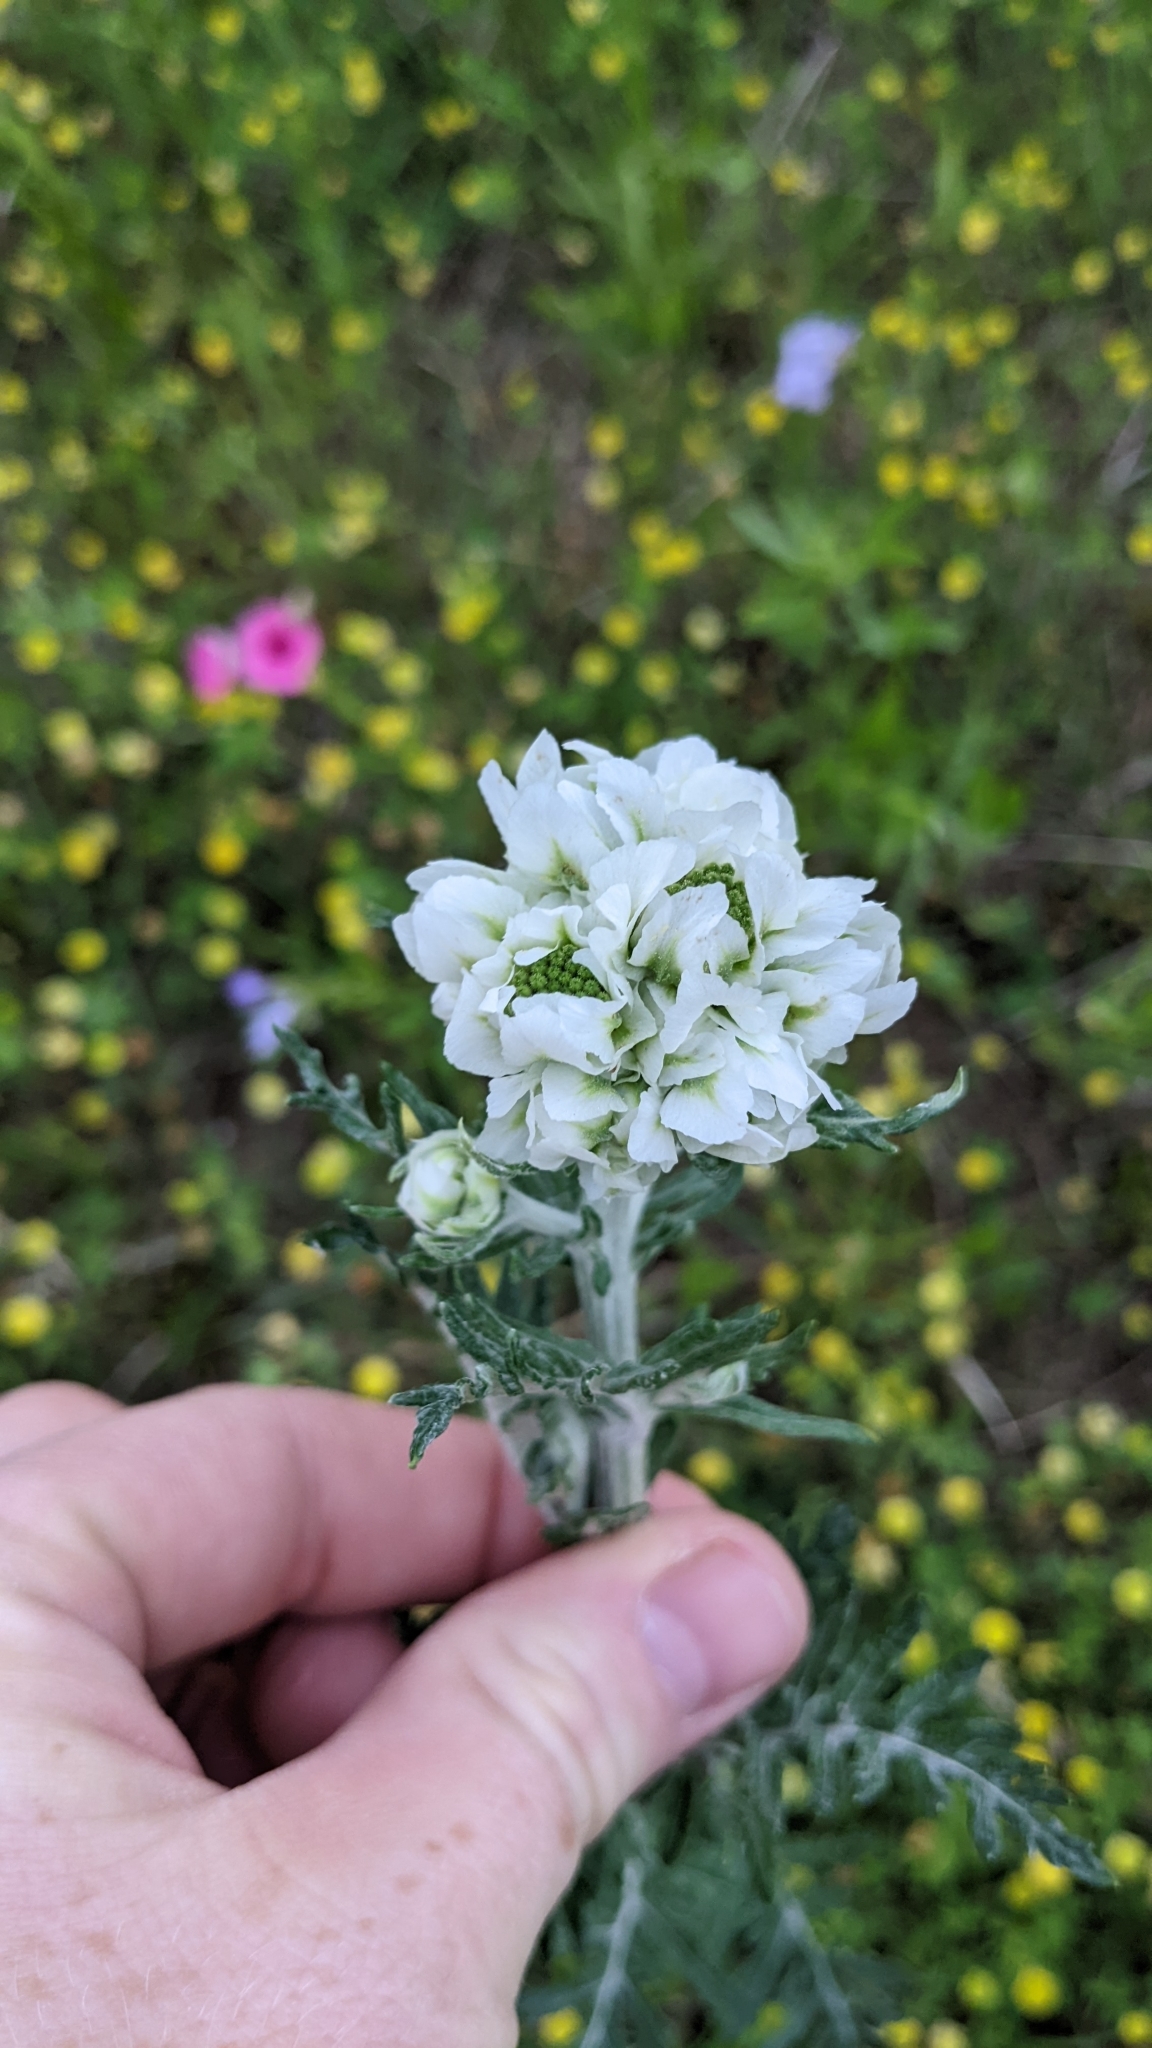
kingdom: Plantae
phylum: Tracheophyta
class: Magnoliopsida
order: Asterales
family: Asteraceae
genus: Hymenopappus
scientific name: Hymenopappus artemisiifolius
